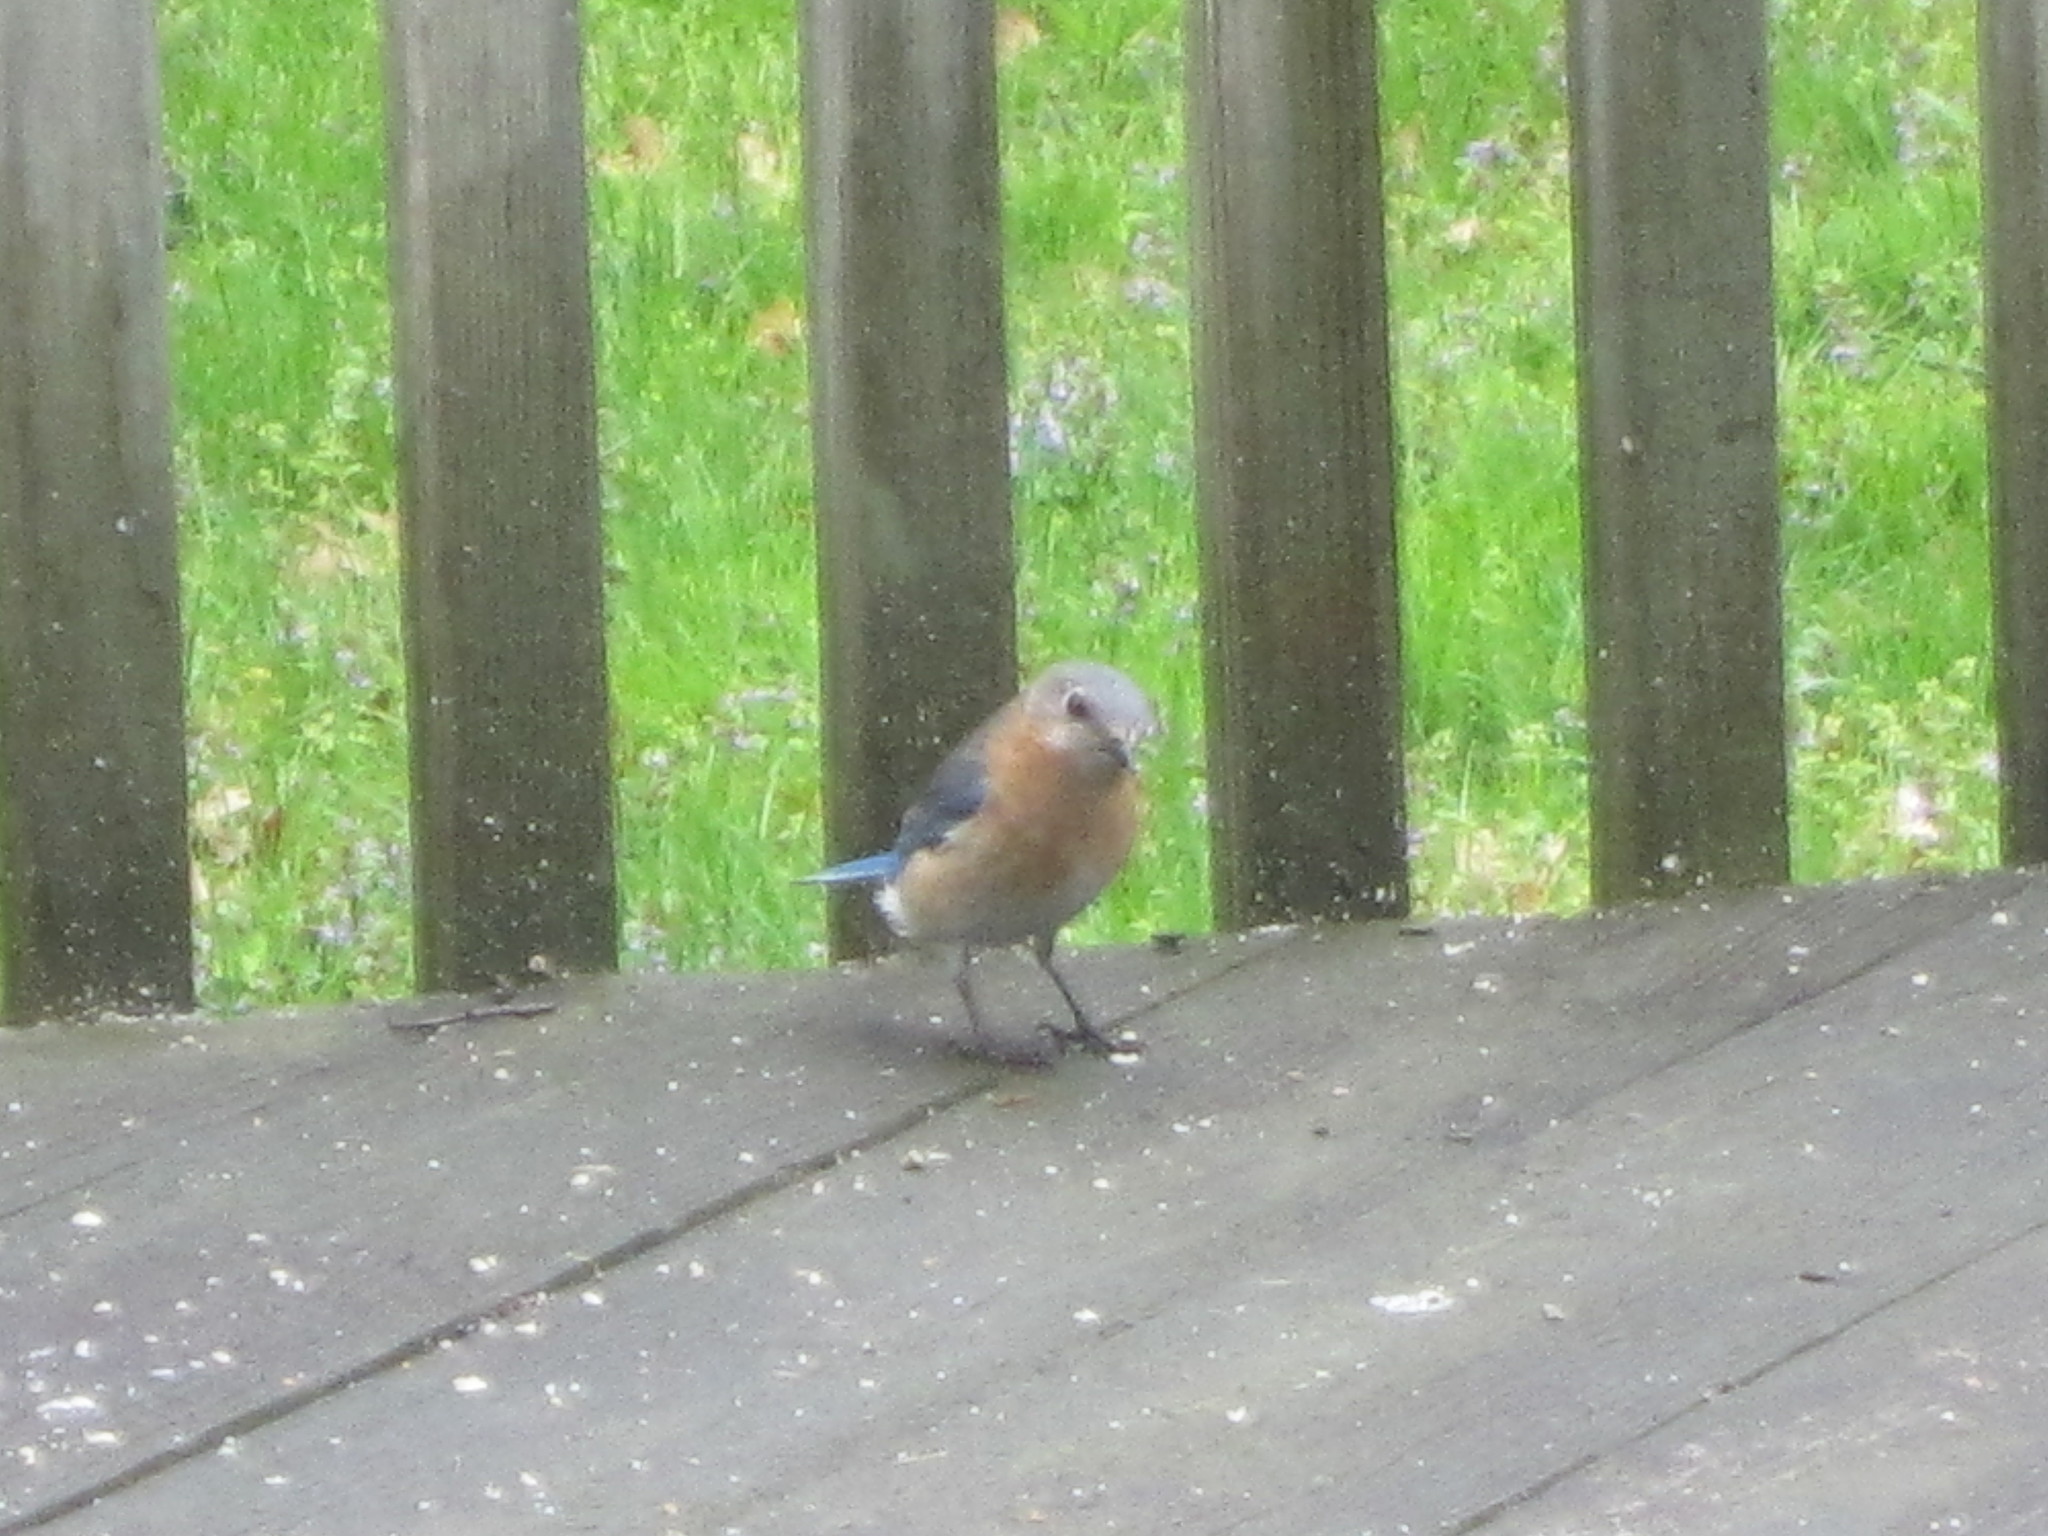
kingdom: Animalia
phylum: Chordata
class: Aves
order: Passeriformes
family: Turdidae
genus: Sialia
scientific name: Sialia sialis
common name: Eastern bluebird
